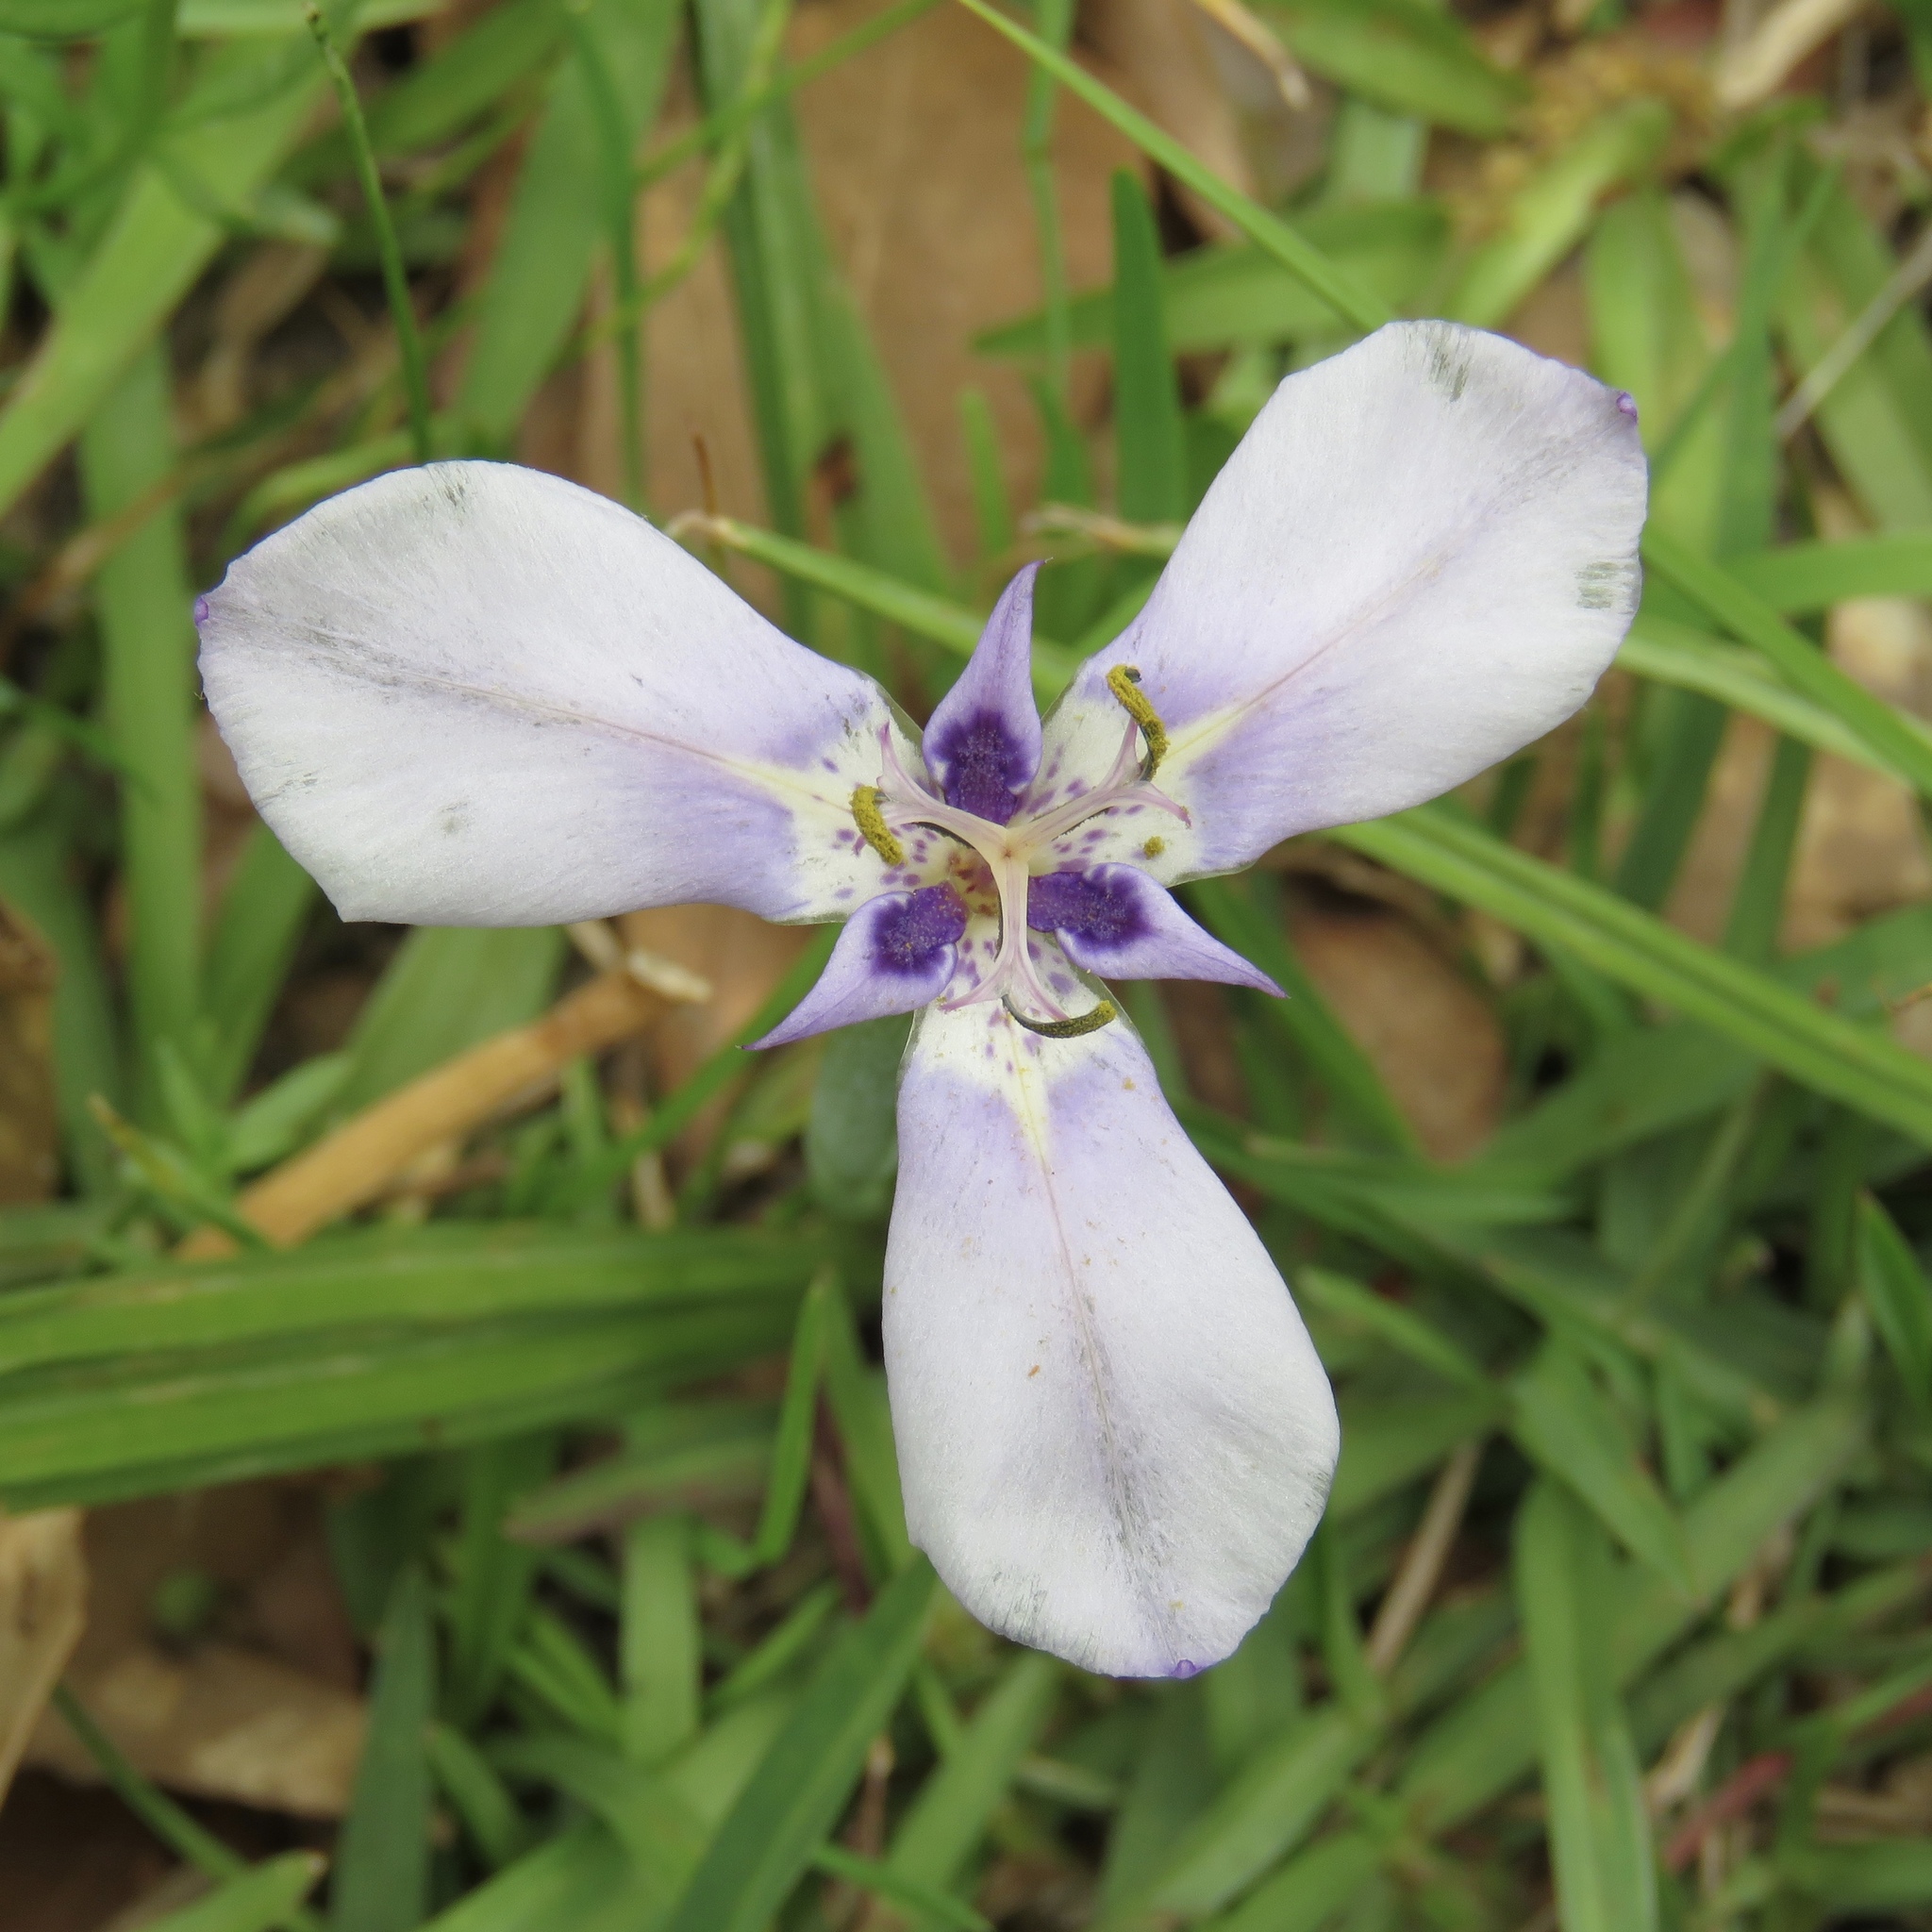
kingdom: Plantae
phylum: Tracheophyta
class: Liliopsida
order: Asparagales
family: Iridaceae
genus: Herbertia
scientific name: Herbertia lahue
